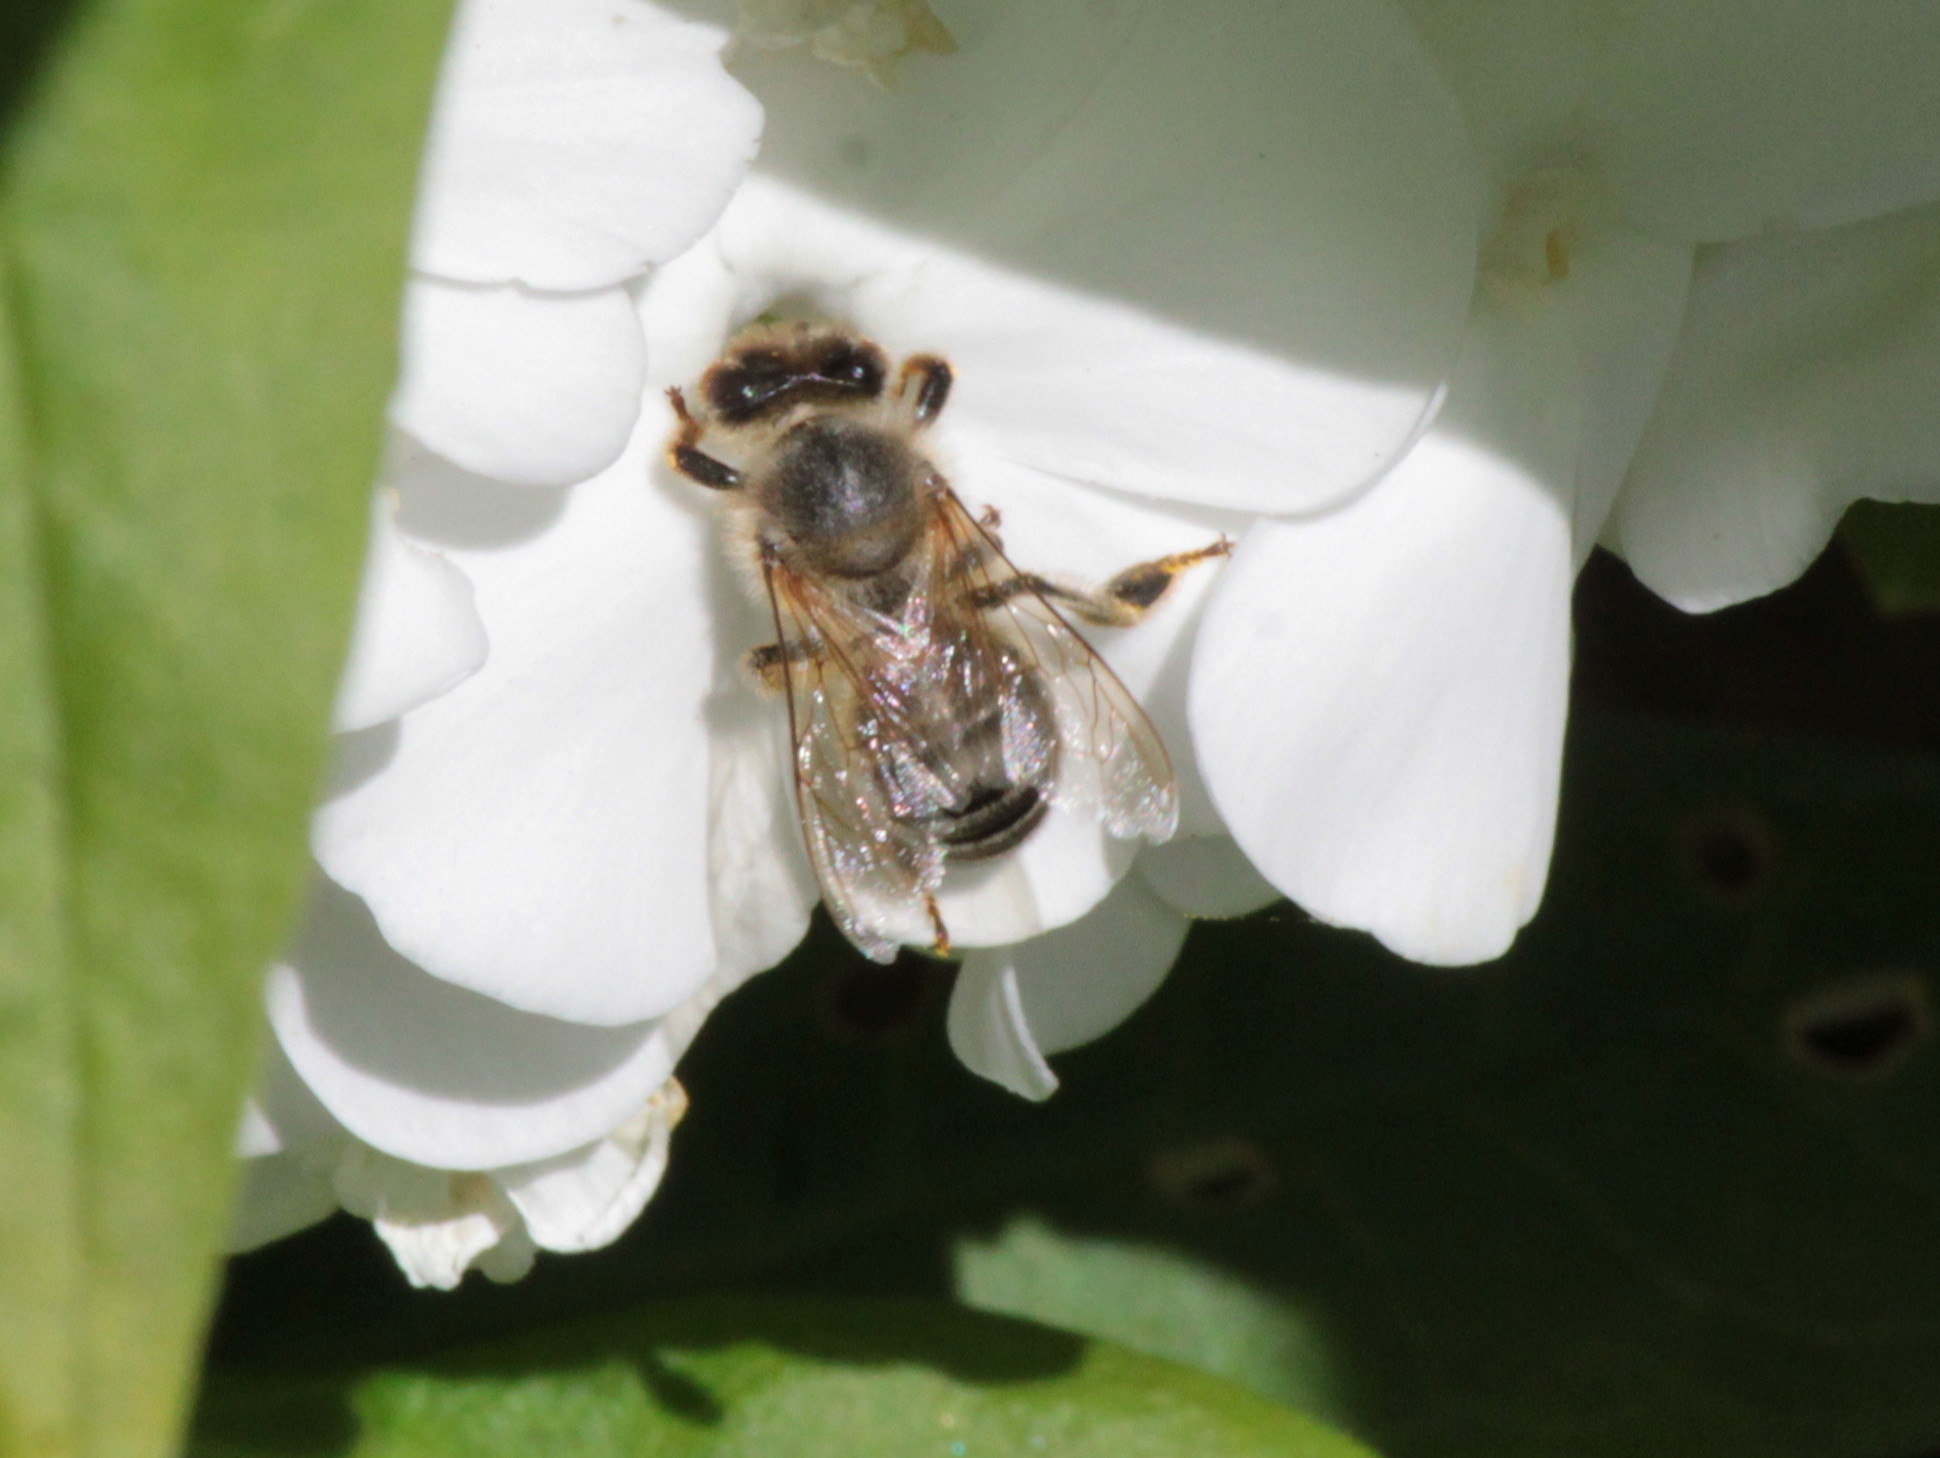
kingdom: Animalia
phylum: Arthropoda
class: Insecta
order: Hymenoptera
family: Apidae
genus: Apis
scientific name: Apis mellifera
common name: Honey bee
